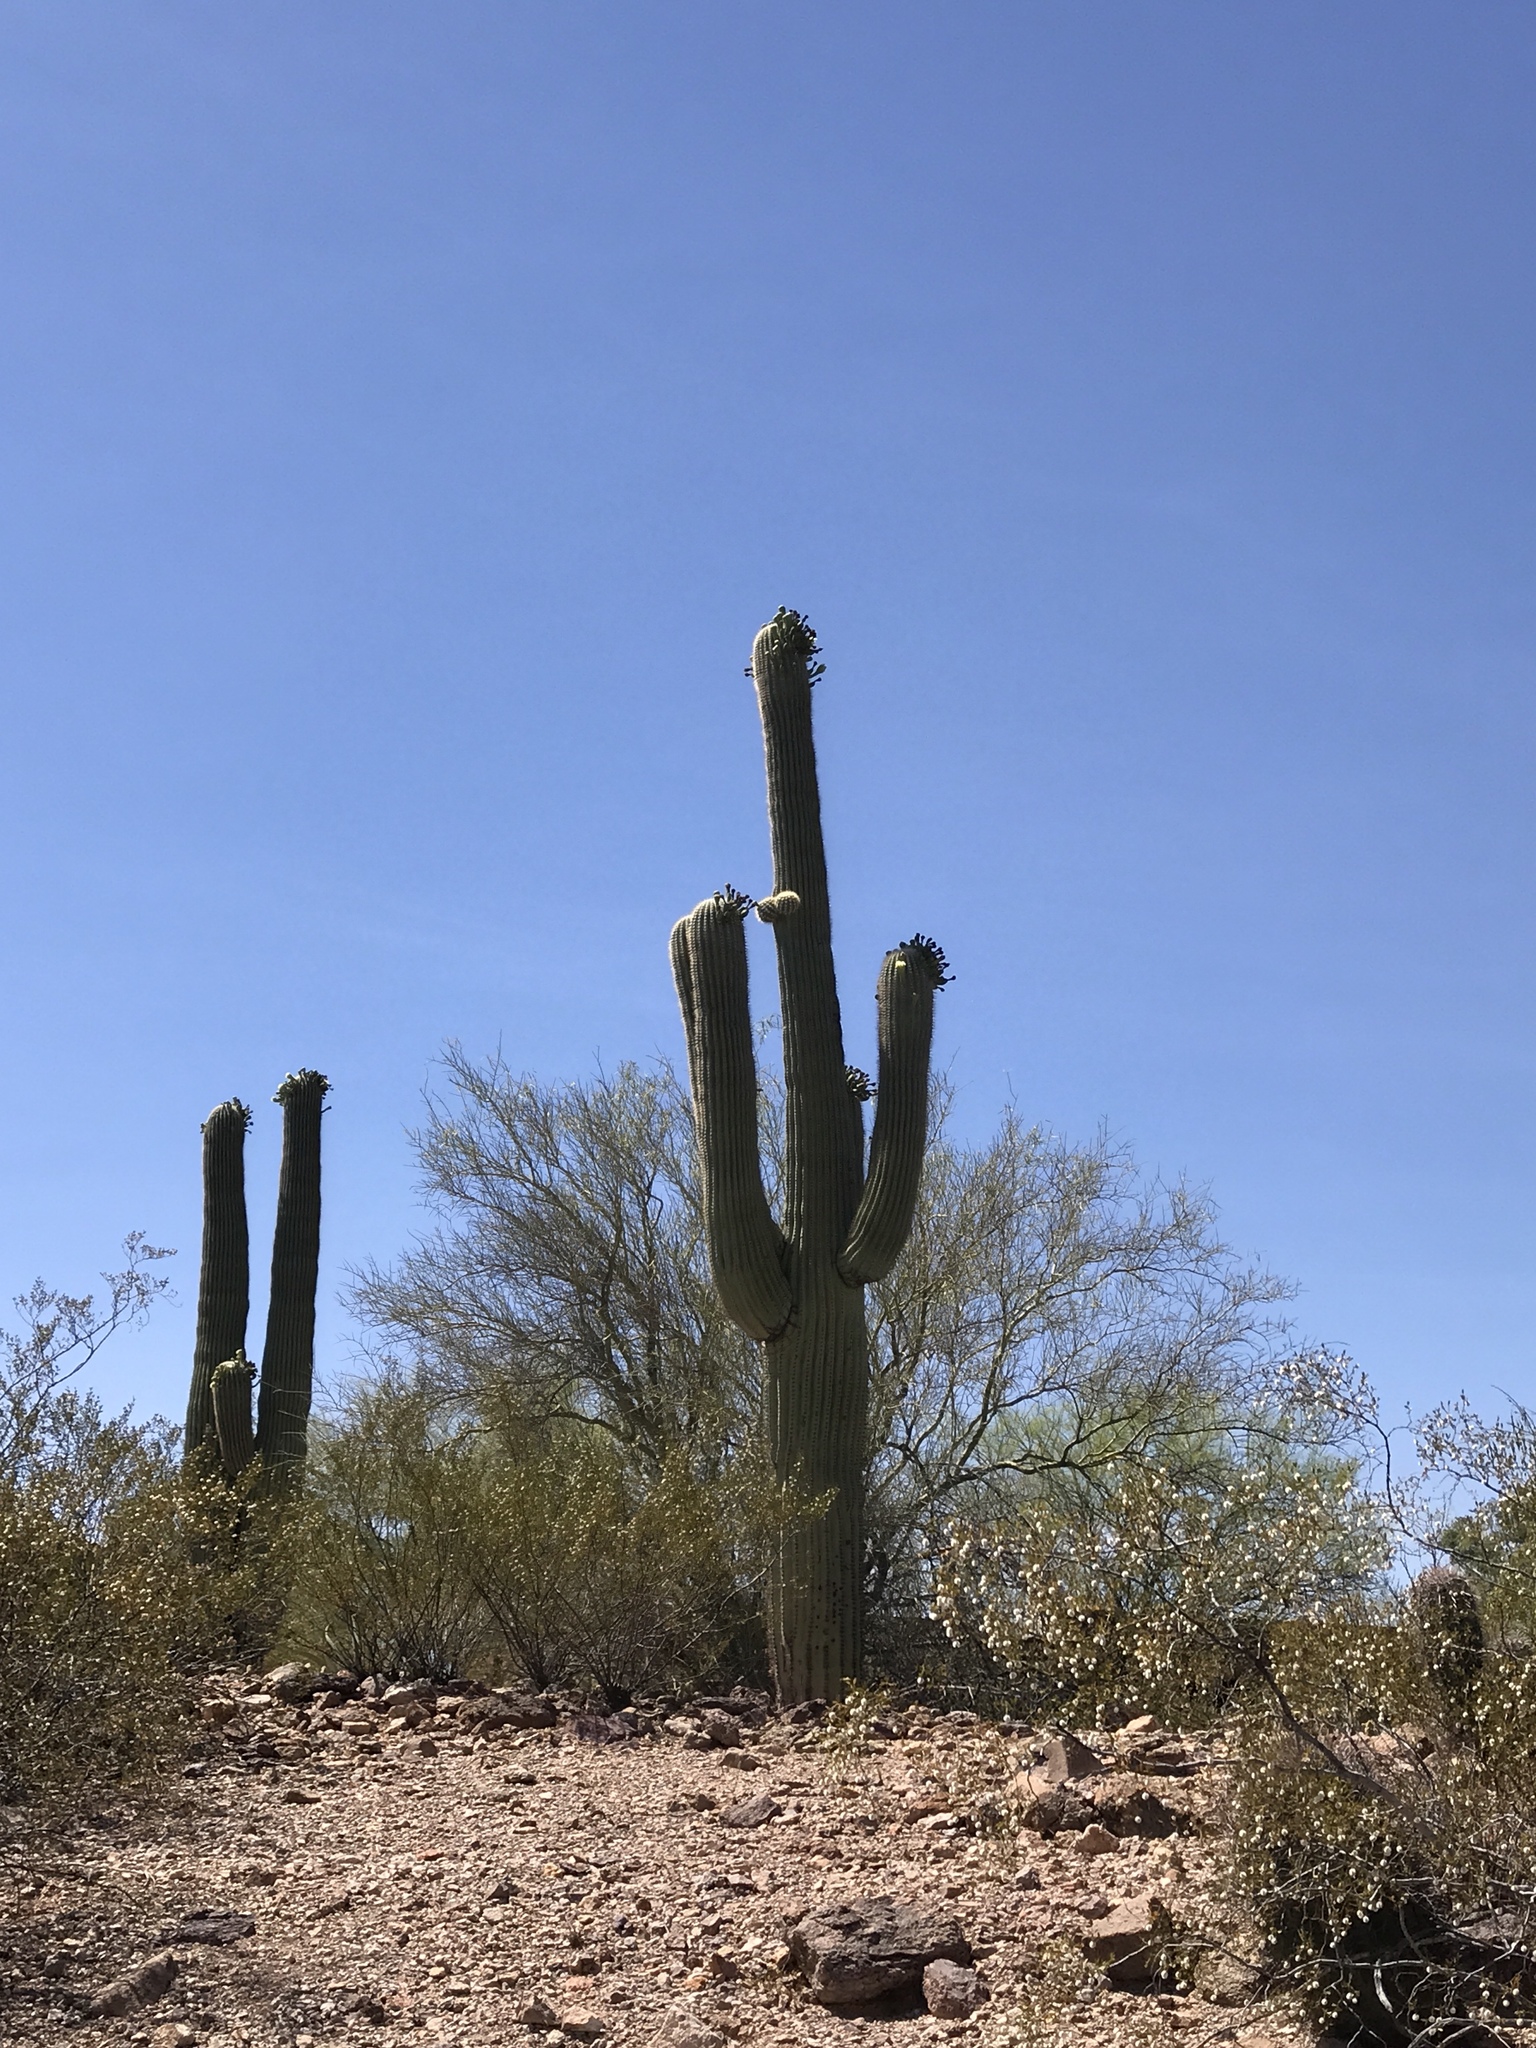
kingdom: Plantae
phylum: Tracheophyta
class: Magnoliopsida
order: Caryophyllales
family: Cactaceae
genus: Carnegiea
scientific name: Carnegiea gigantea
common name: Saguaro
